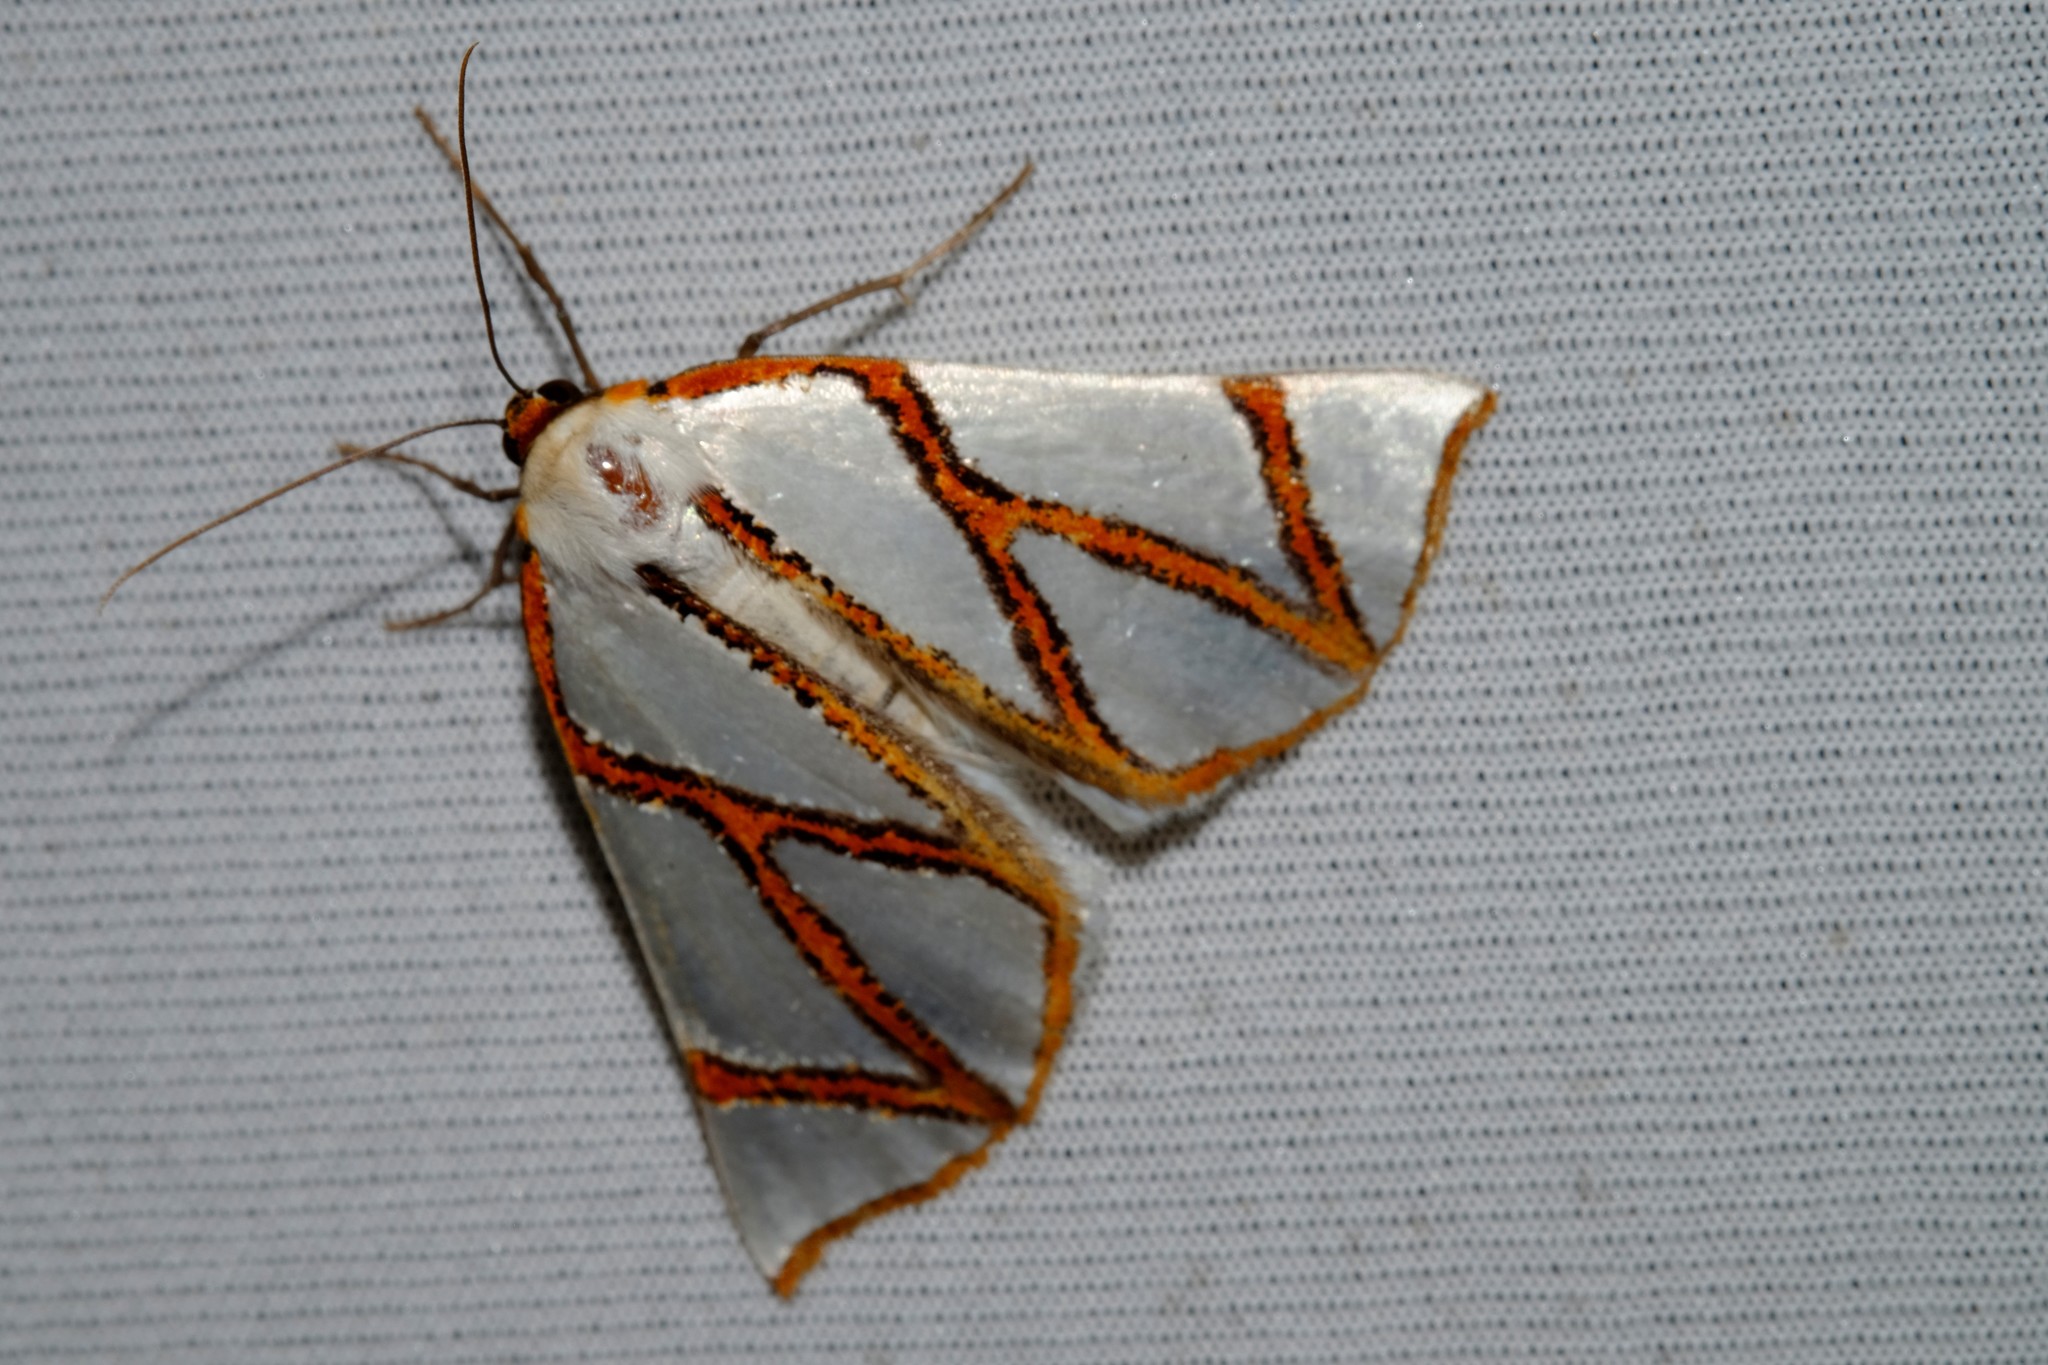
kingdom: Animalia
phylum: Arthropoda
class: Insecta
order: Lepidoptera
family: Geometridae
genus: Thalaina
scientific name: Thalaina clara
